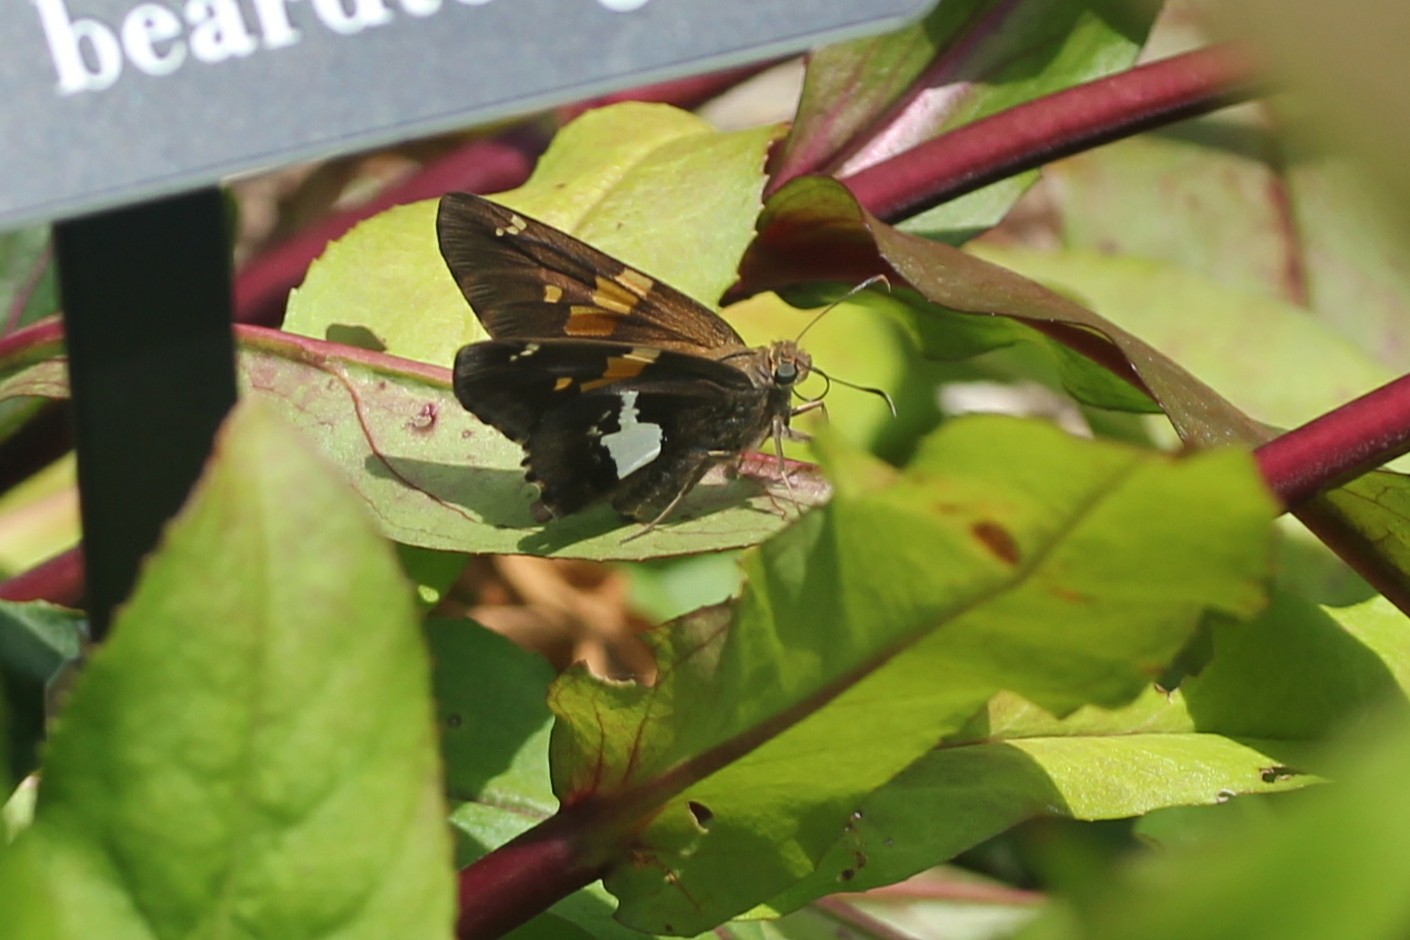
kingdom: Animalia
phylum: Arthropoda
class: Insecta
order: Lepidoptera
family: Hesperiidae
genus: Epargyreus
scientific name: Epargyreus clarus
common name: Silver-spotted skipper
